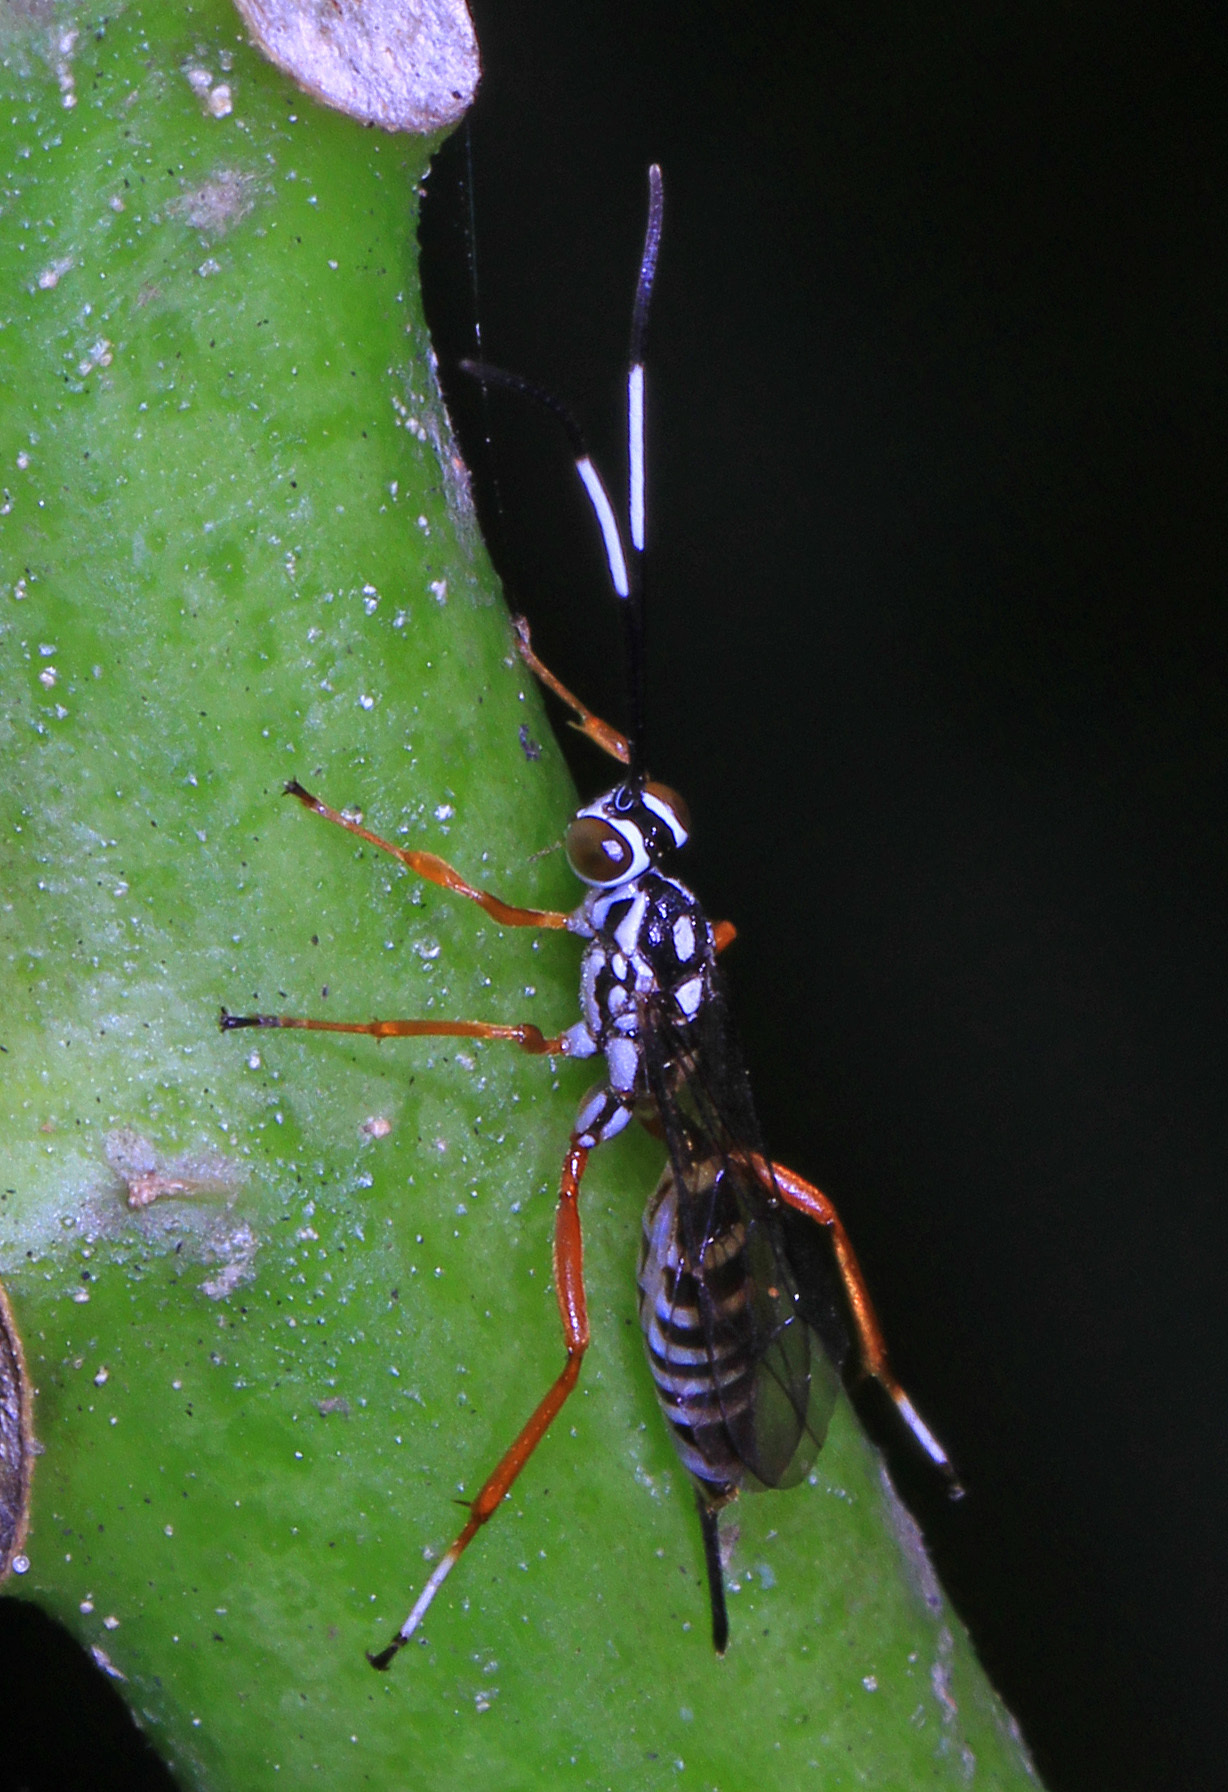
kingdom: Animalia
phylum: Arthropoda
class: Insecta
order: Hymenoptera
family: Ichneumonidae
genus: Agonocryptus
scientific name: Agonocryptus chichimecus
